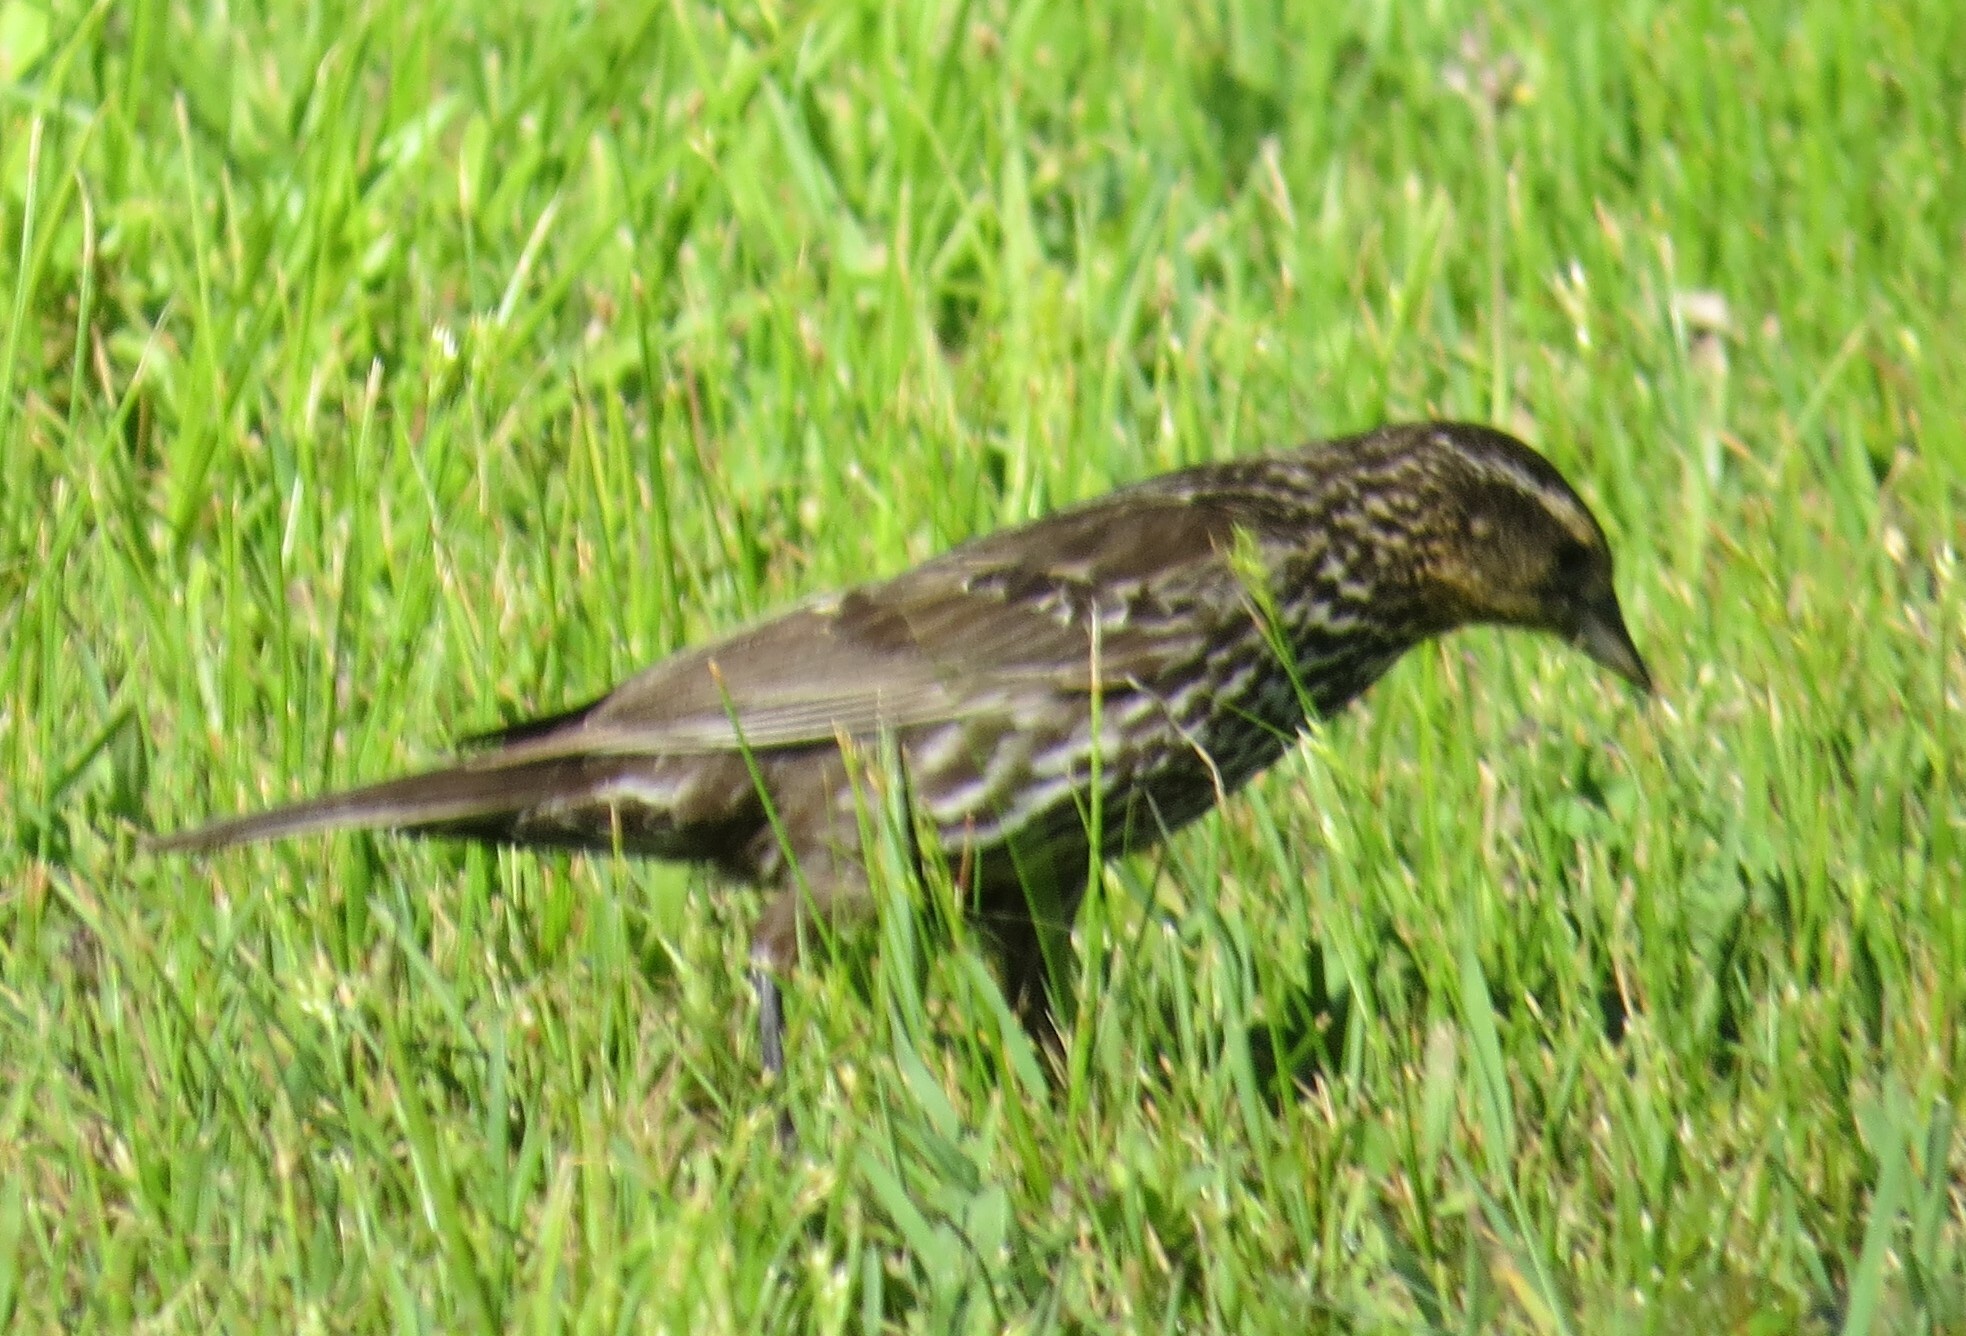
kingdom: Animalia
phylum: Chordata
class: Aves
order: Passeriformes
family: Icteridae
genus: Agelaius
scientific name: Agelaius phoeniceus
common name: Red-winged blackbird
